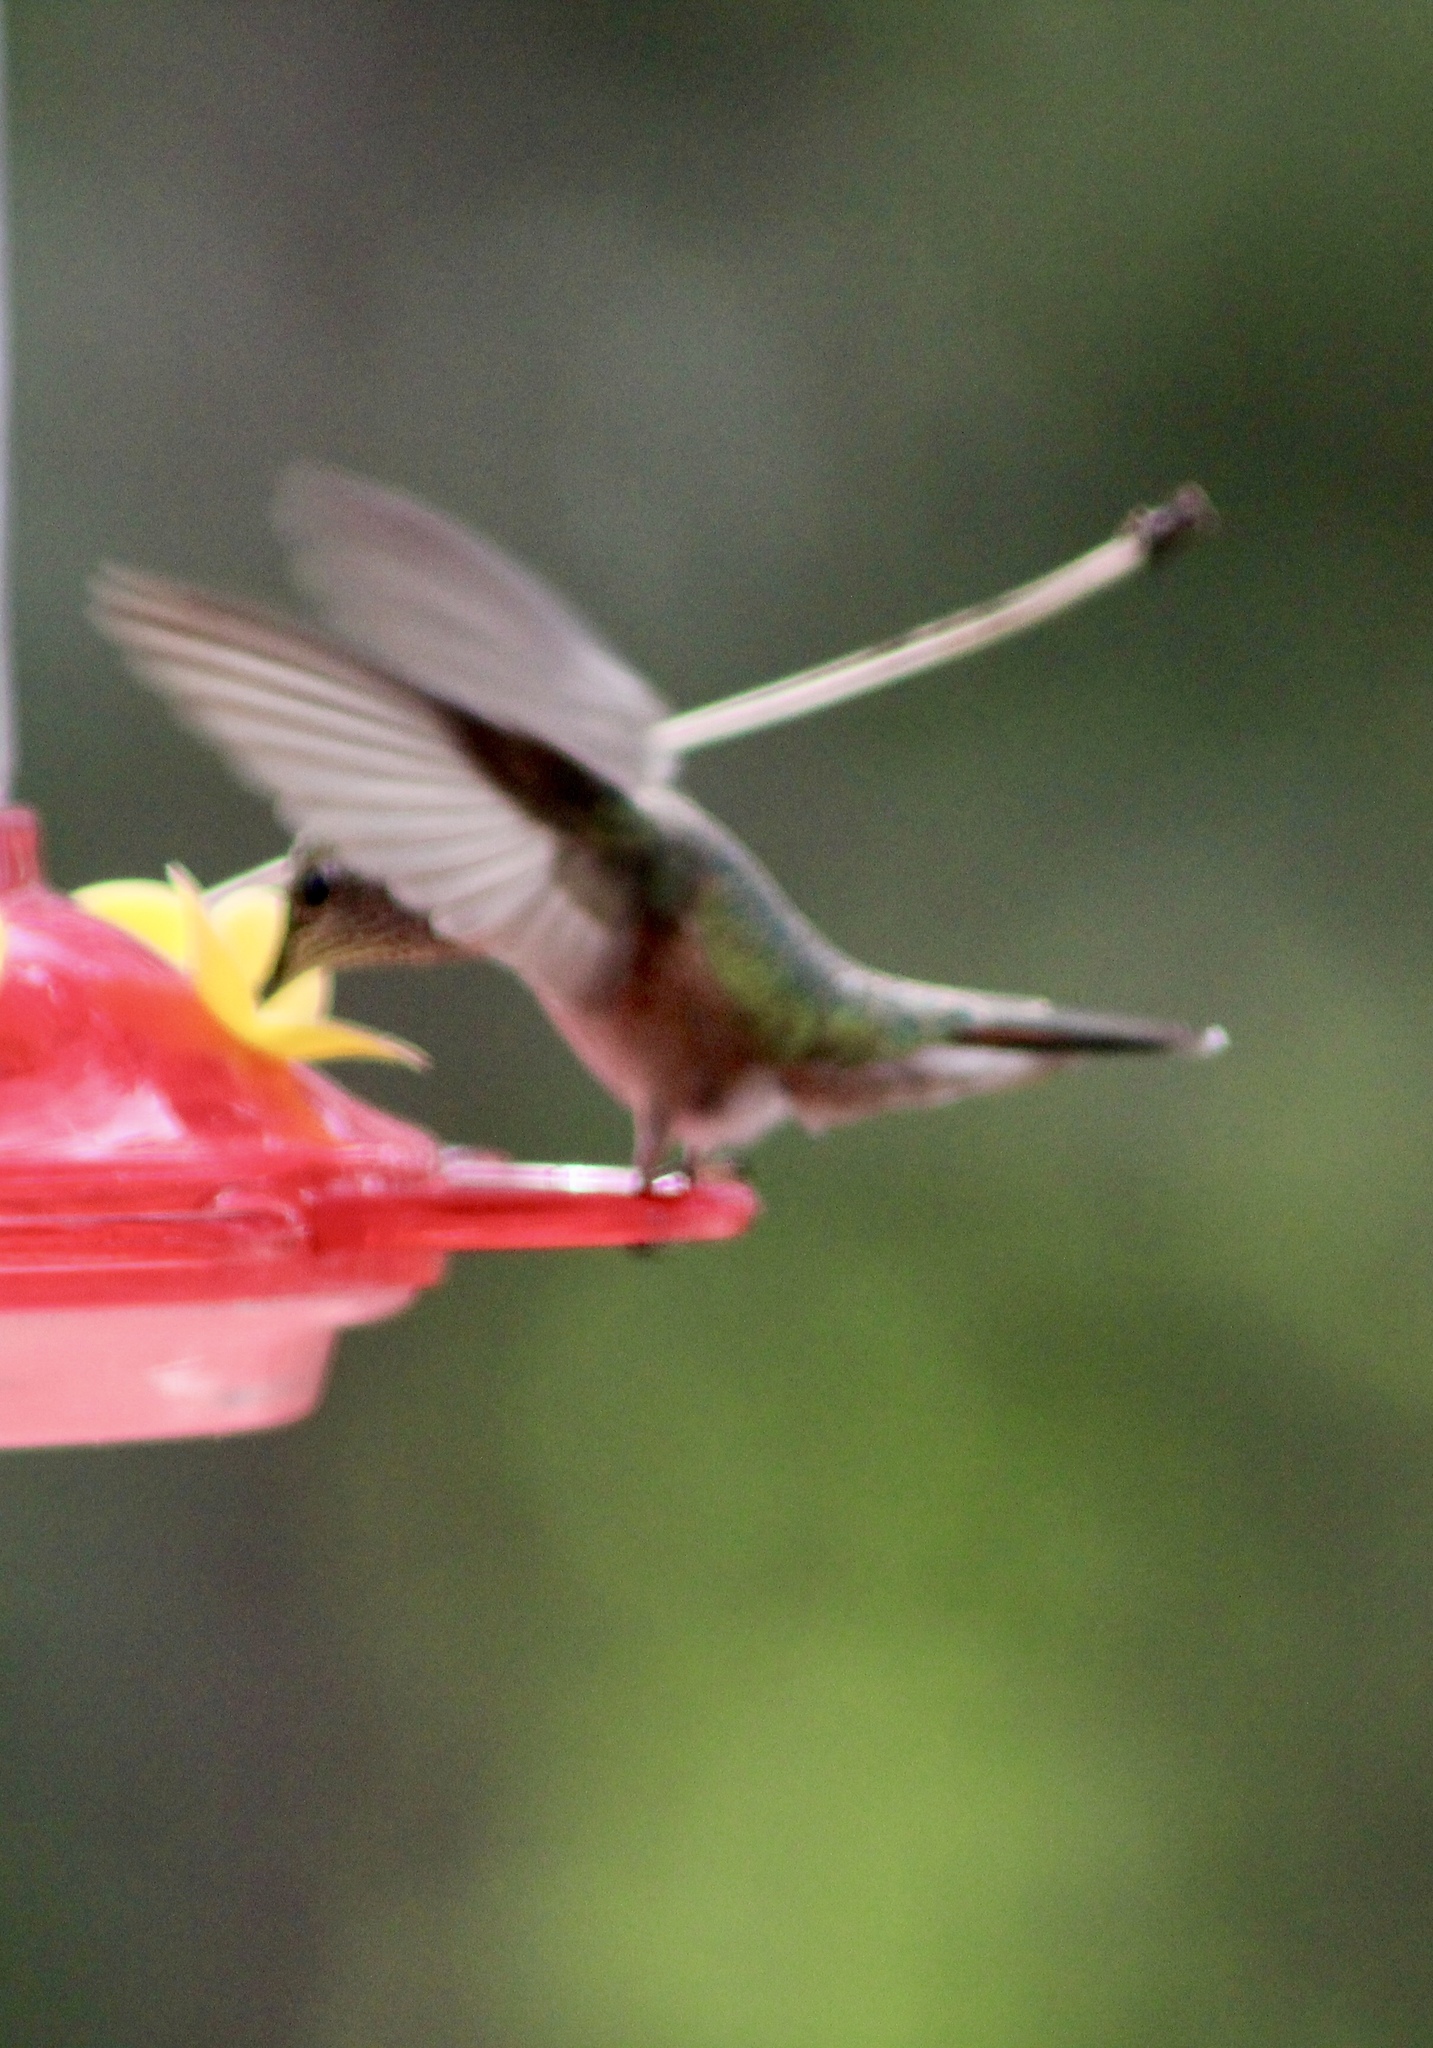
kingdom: Animalia
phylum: Chordata
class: Aves
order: Apodiformes
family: Trochilidae
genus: Selasphorus
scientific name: Selasphorus platycercus
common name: Broad-tailed hummingbird
